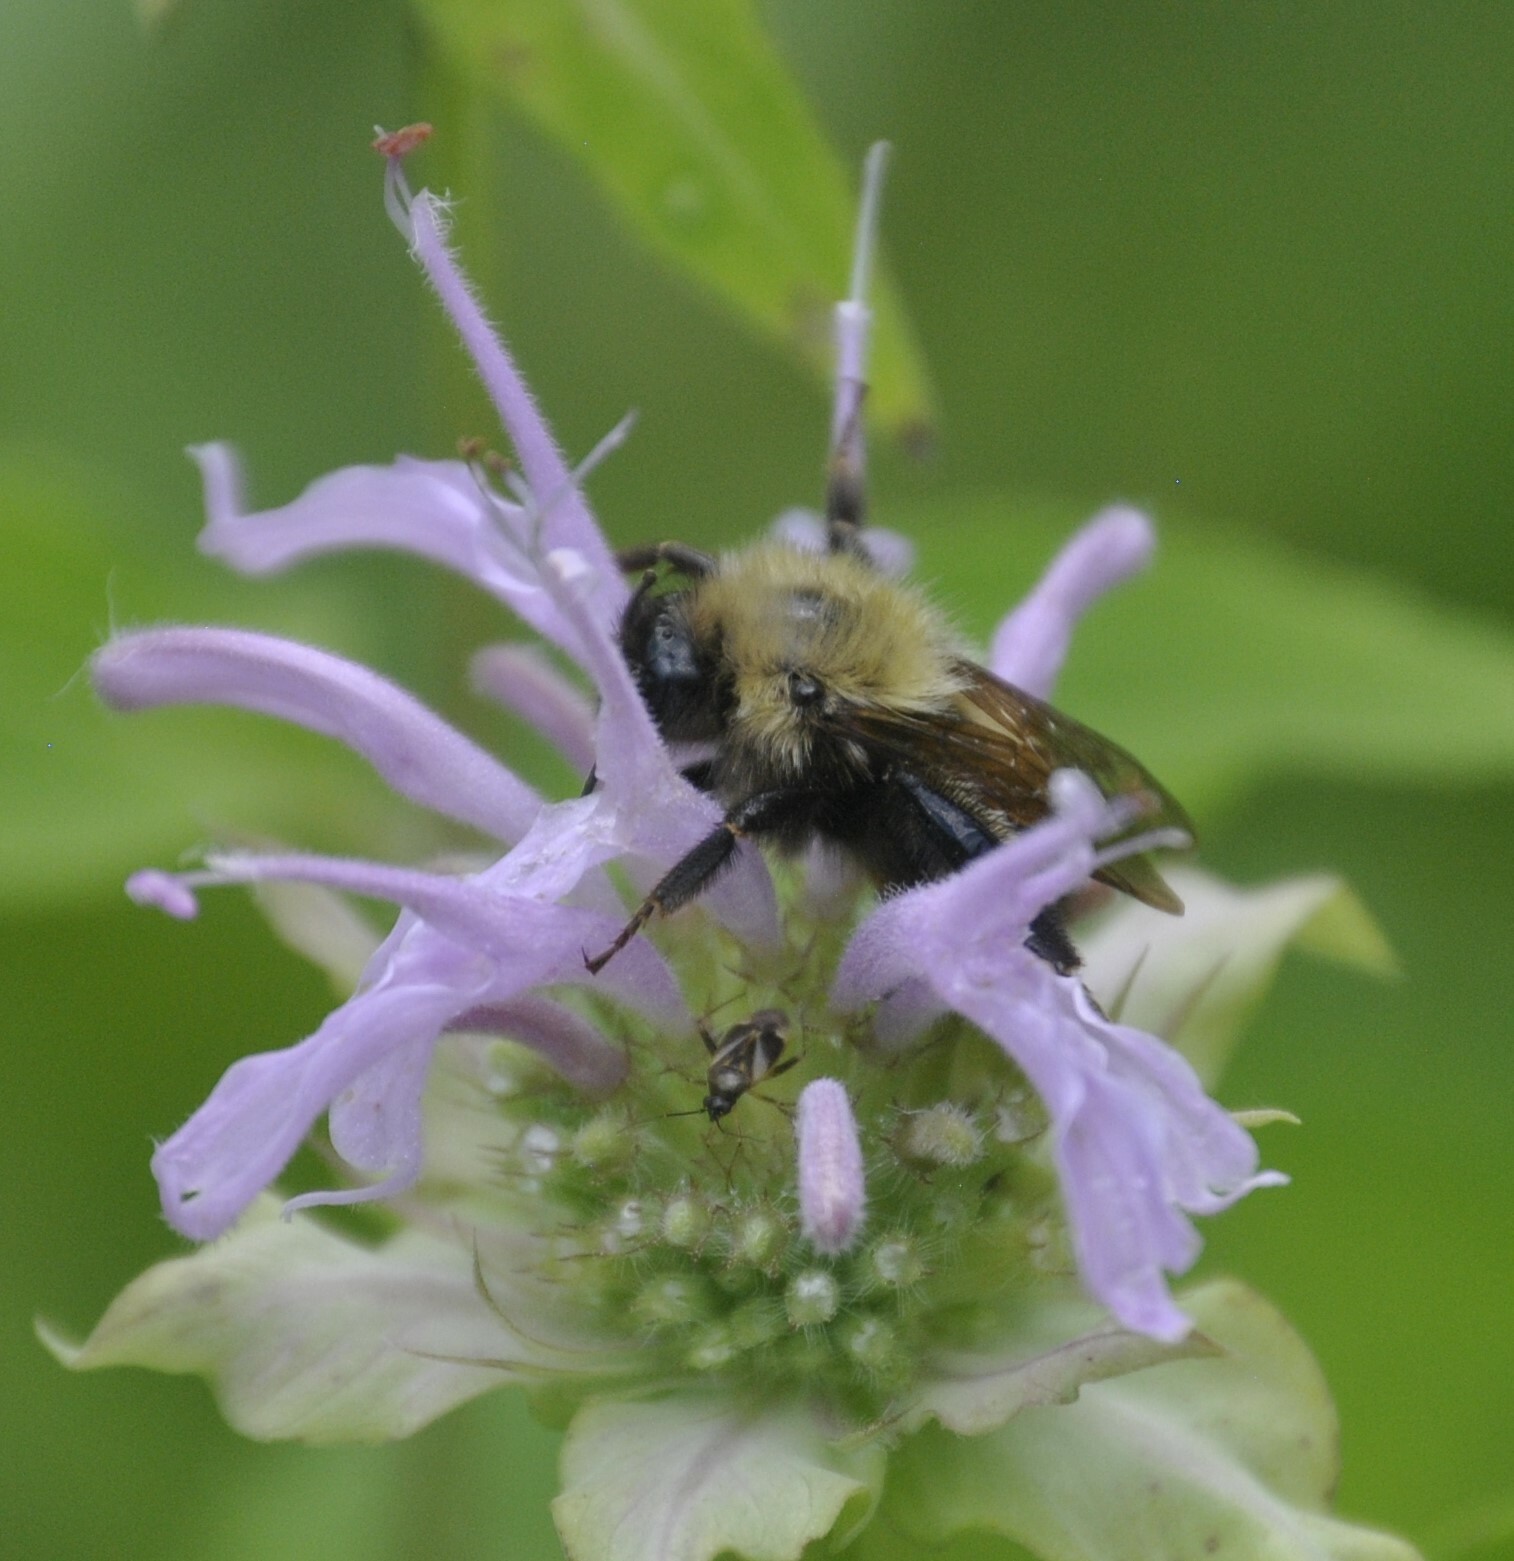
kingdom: Animalia
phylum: Arthropoda
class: Insecta
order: Hymenoptera
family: Apidae
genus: Bombus
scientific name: Bombus perplexus
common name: Confusing bumble bee
